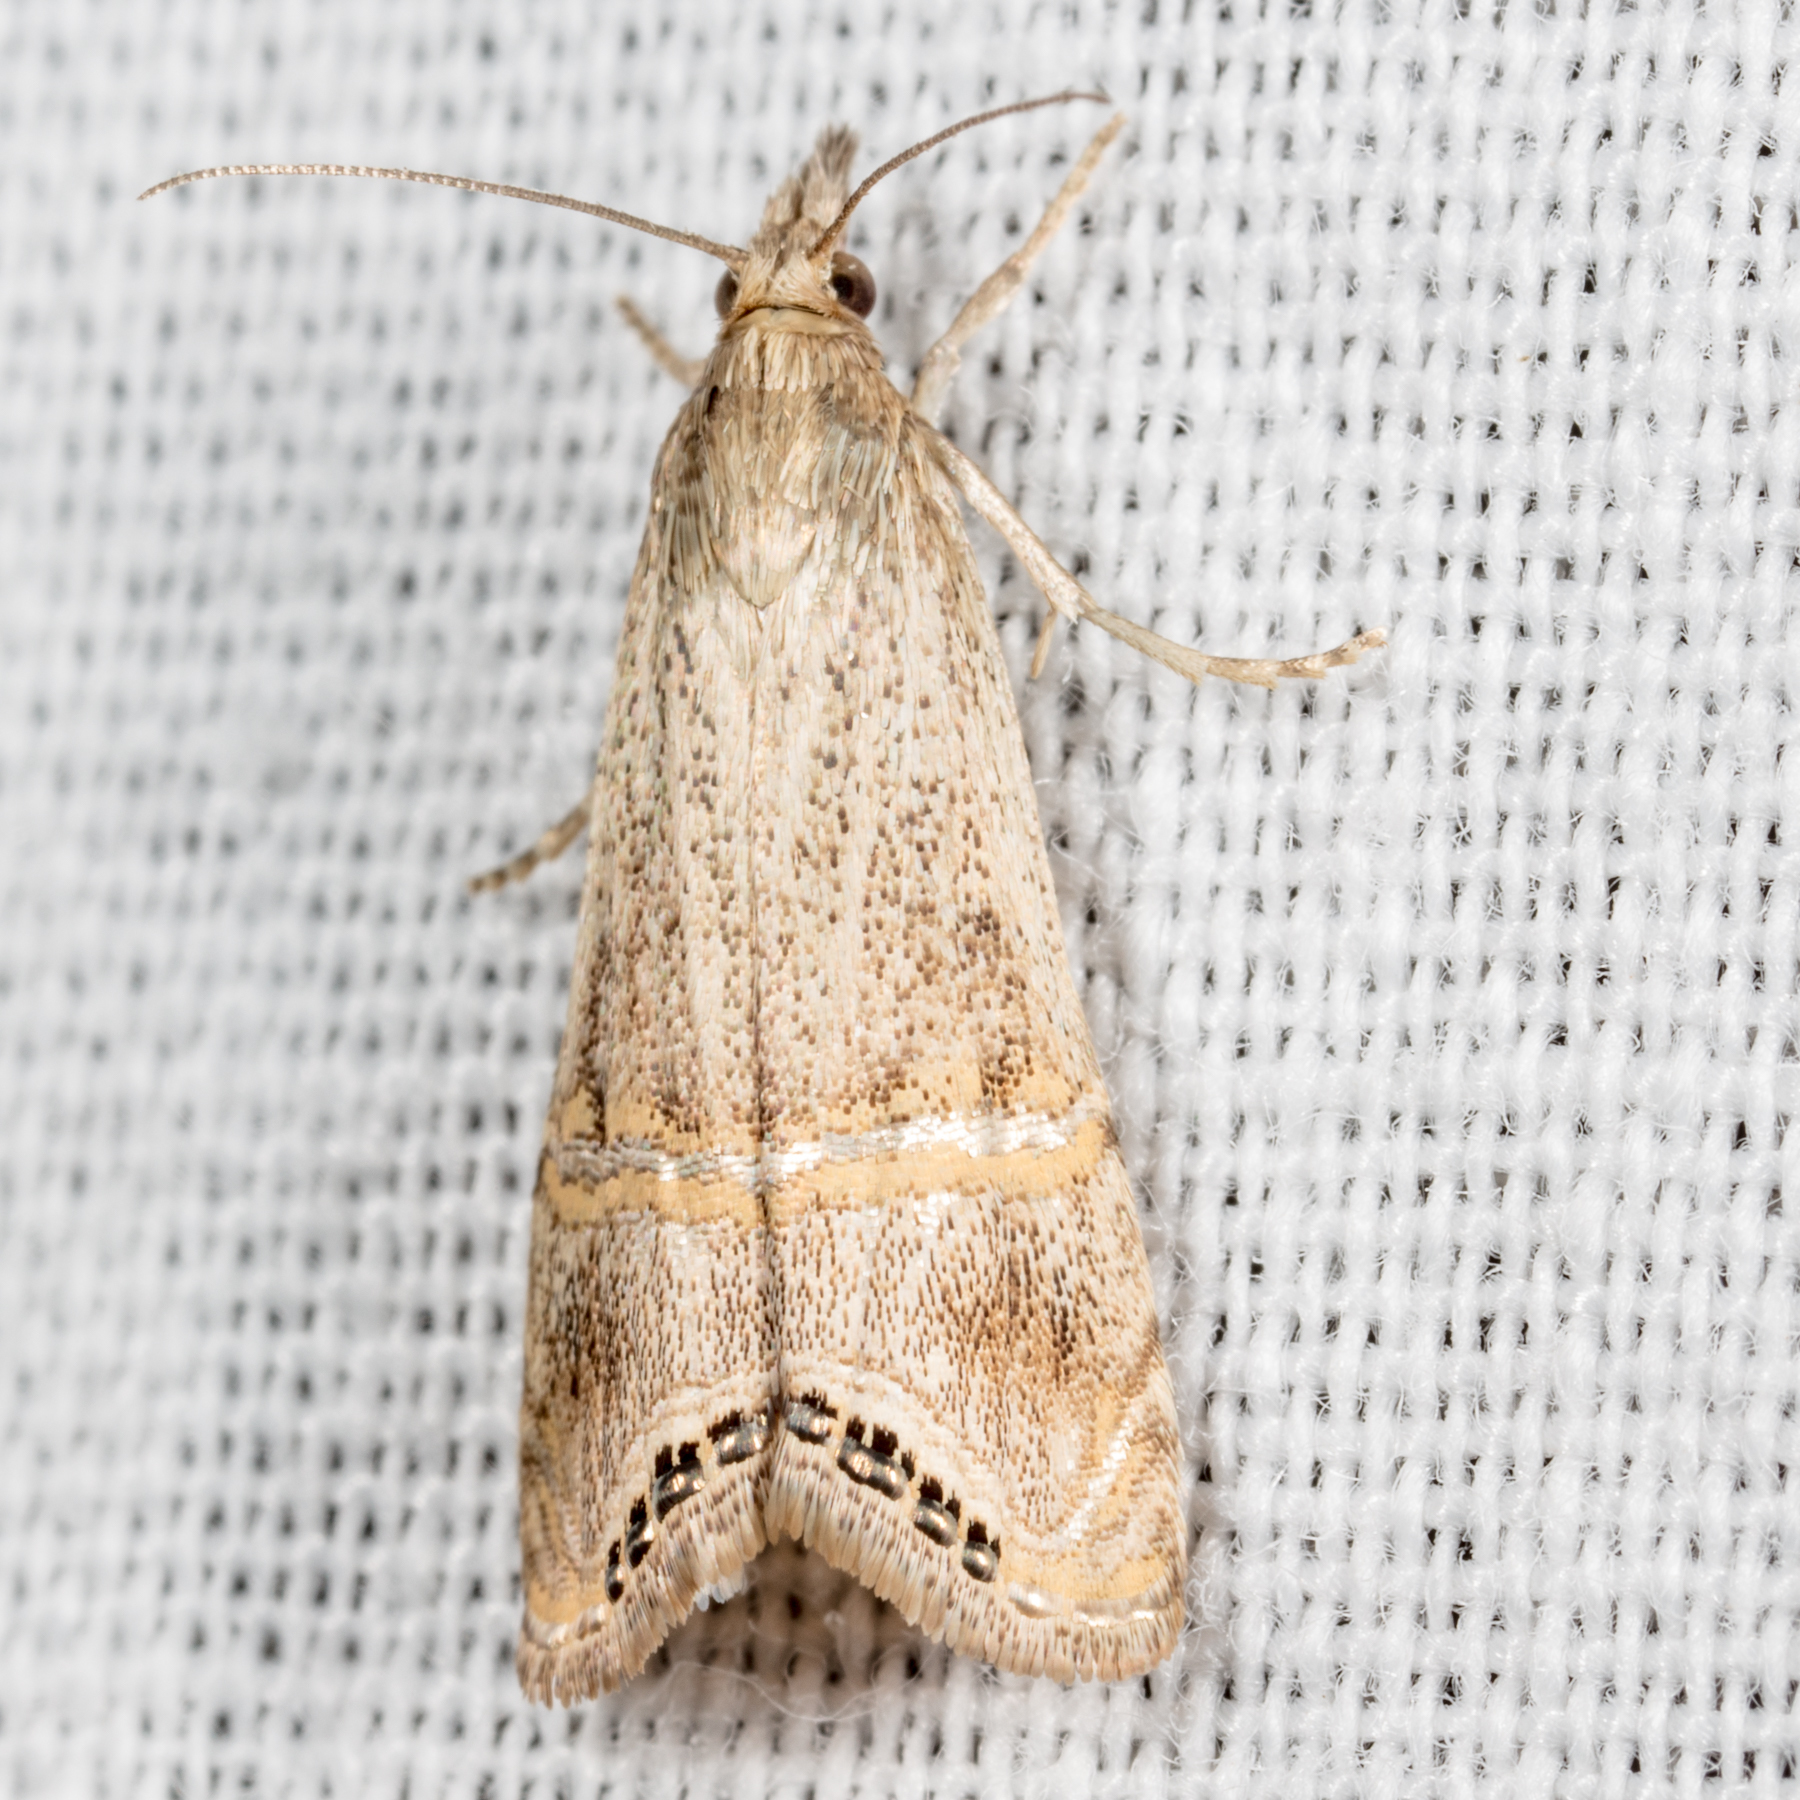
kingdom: Animalia
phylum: Arthropoda
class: Insecta
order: Lepidoptera
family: Crambidae
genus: Euchromius
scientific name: Euchromius ocellea
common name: Necklace veneer moth
